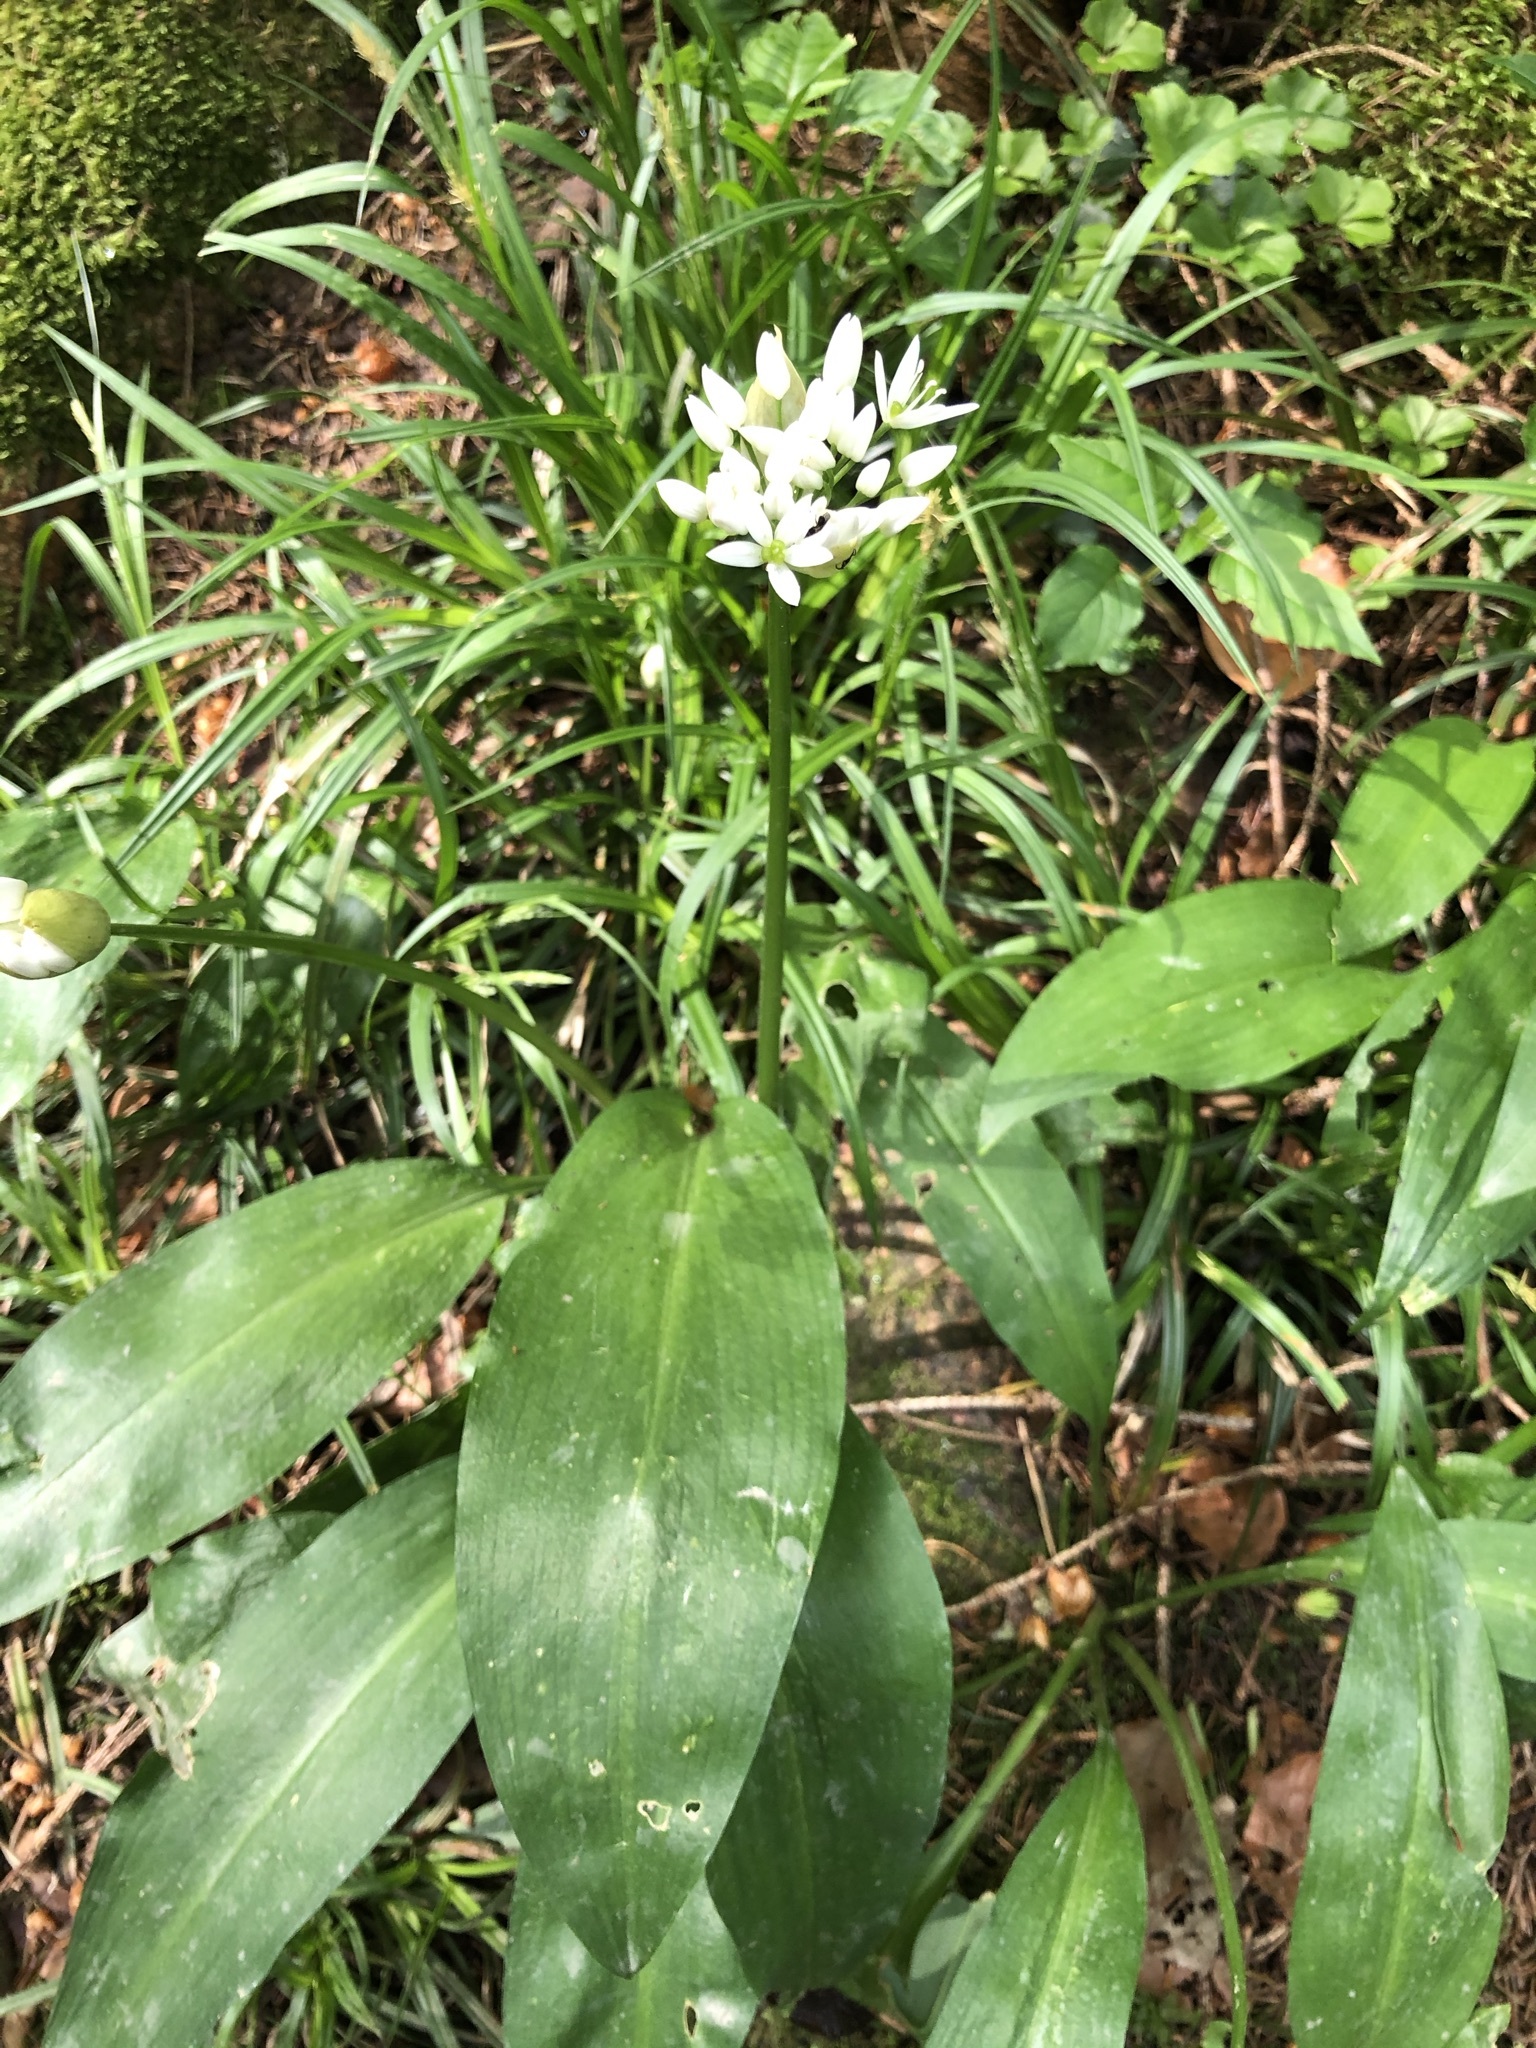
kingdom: Plantae
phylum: Tracheophyta
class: Liliopsida
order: Asparagales
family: Amaryllidaceae
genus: Allium
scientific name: Allium ursinum
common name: Ramsons
